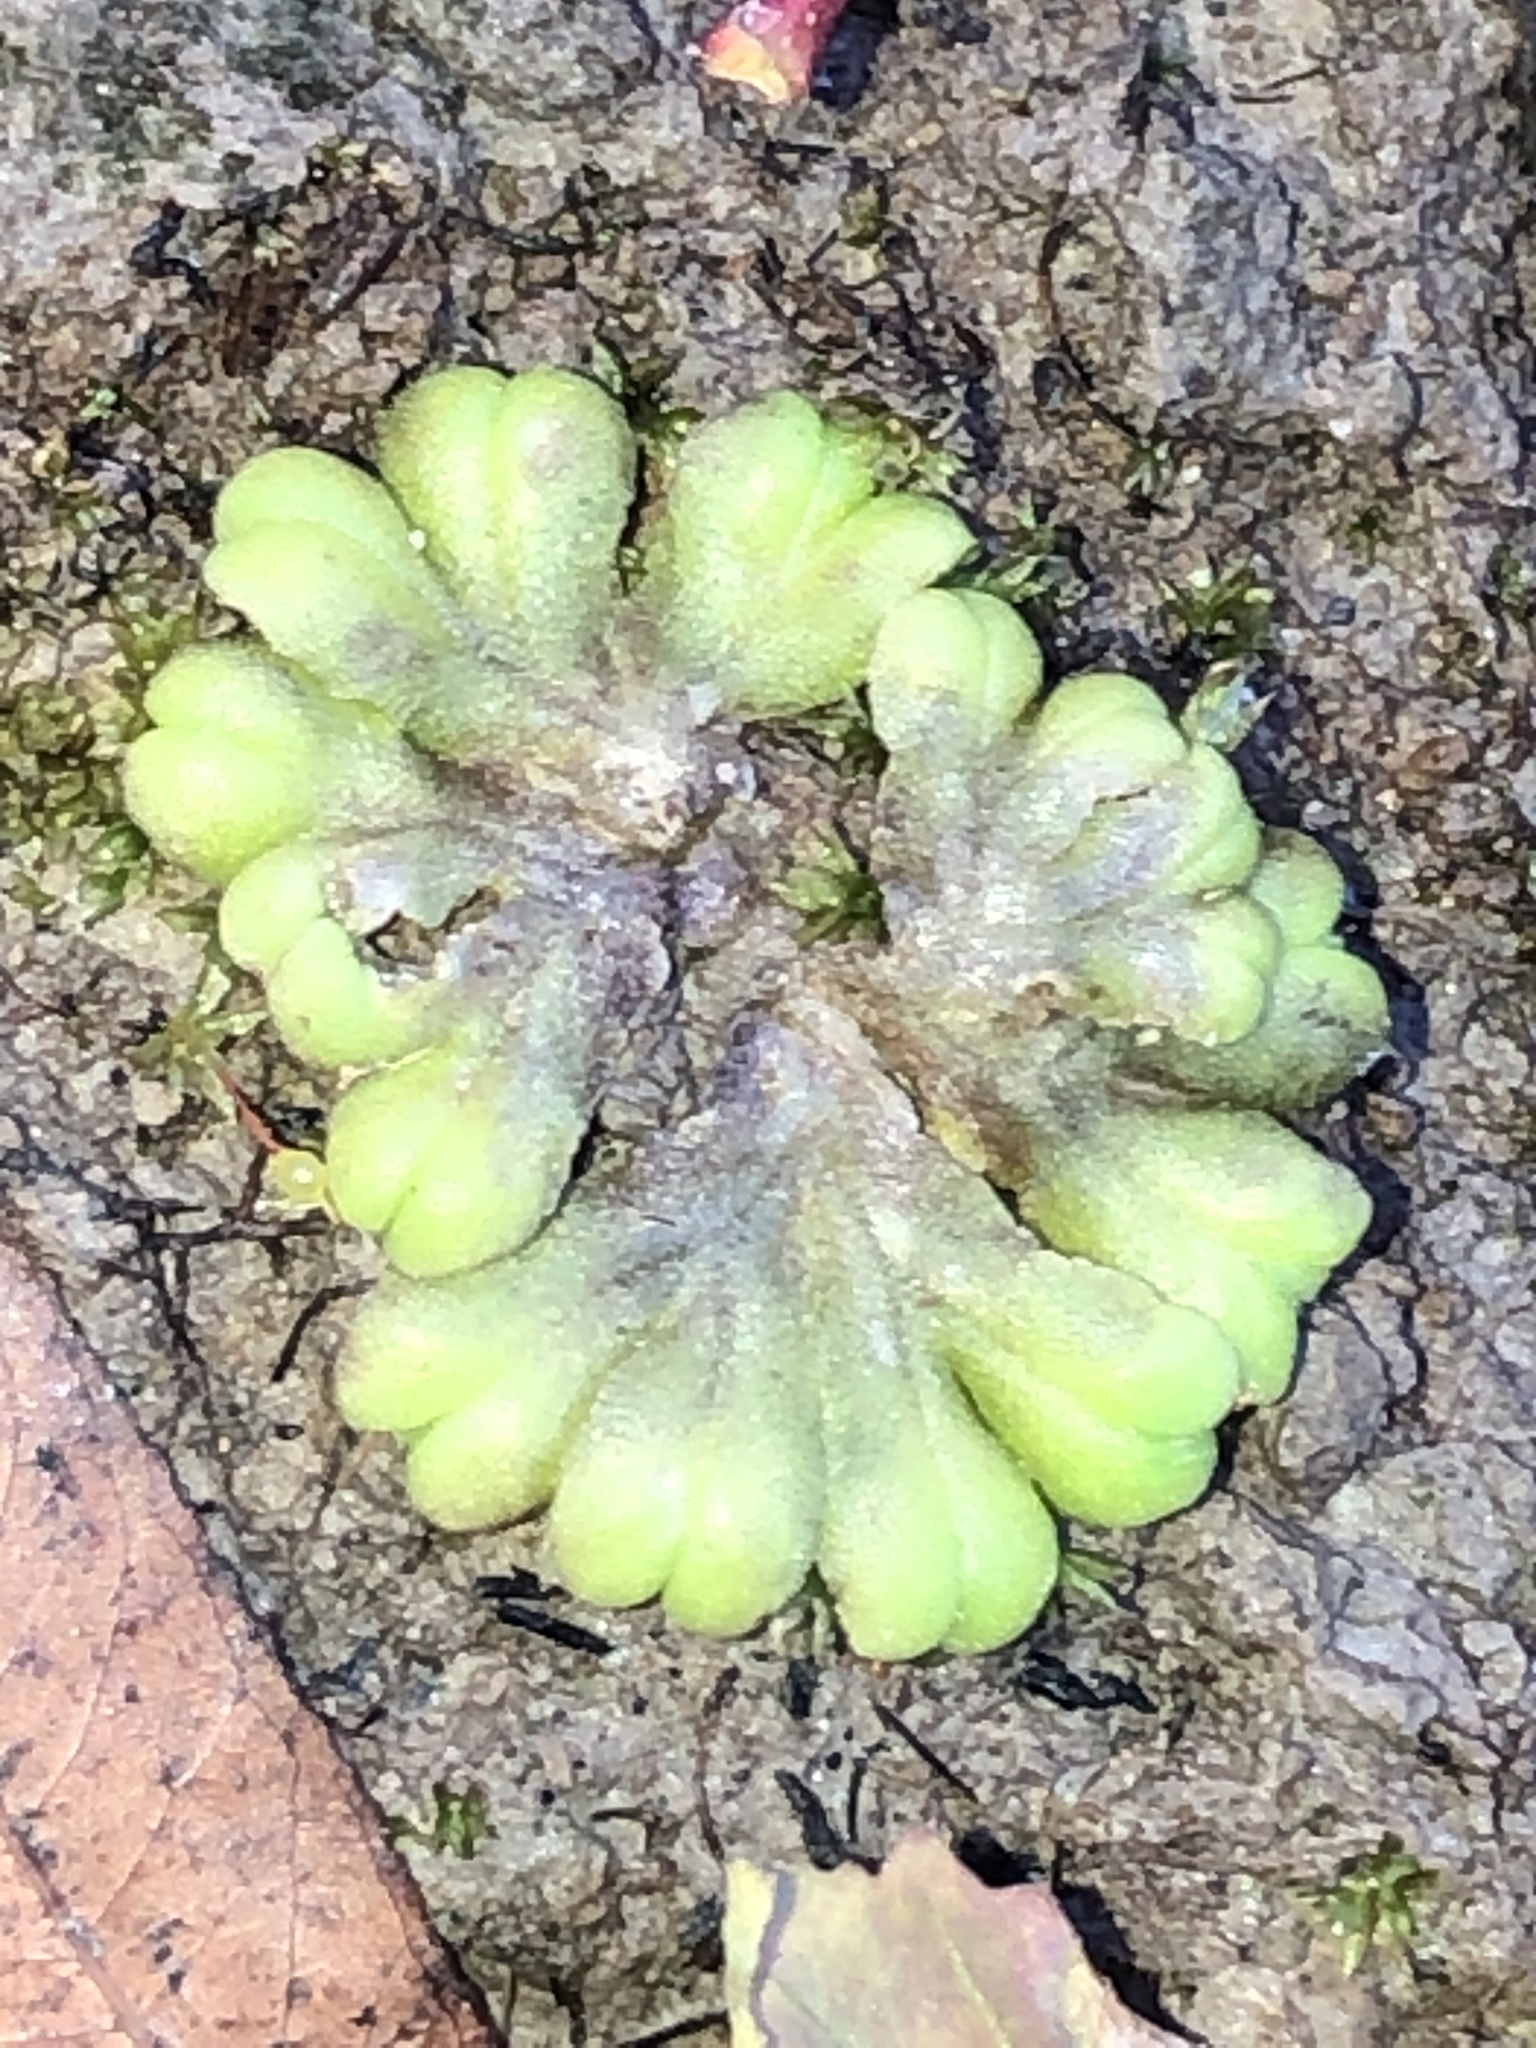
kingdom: Plantae
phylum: Marchantiophyta
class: Marchantiopsida
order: Marchantiales
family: Ricciaceae
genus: Ricciocarpos
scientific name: Ricciocarpos natans
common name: Purple-fringed liverwort
